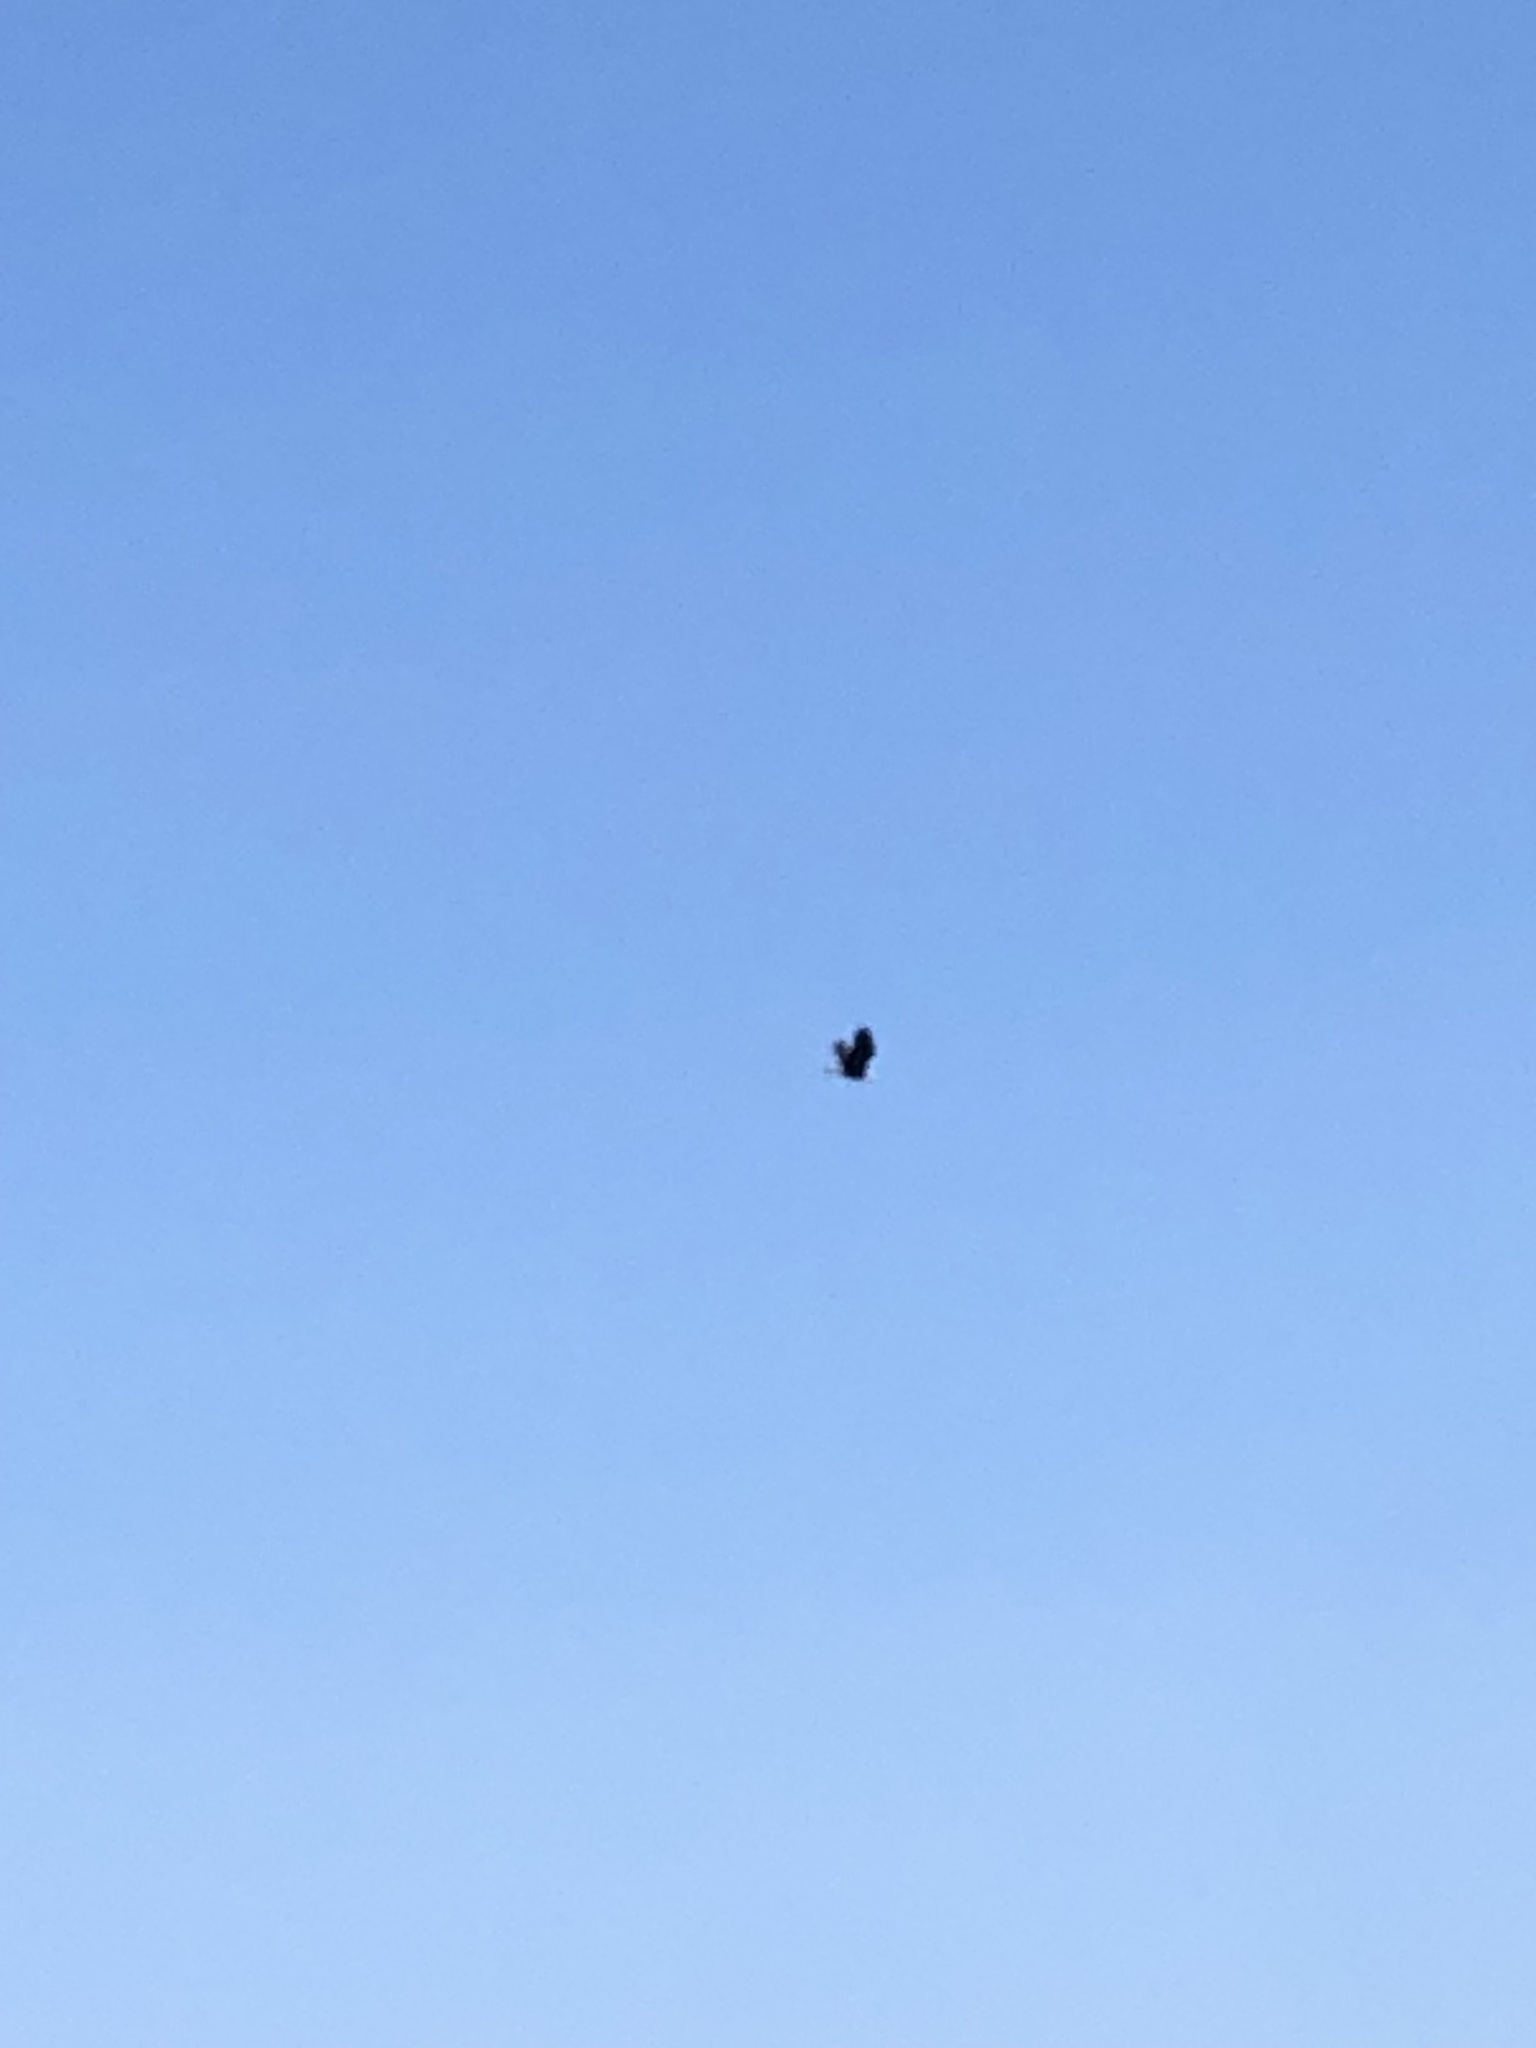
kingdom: Animalia
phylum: Chordata
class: Aves
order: Accipitriformes
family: Accipitridae
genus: Haliaeetus
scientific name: Haliaeetus leucocephalus
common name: Bald eagle
